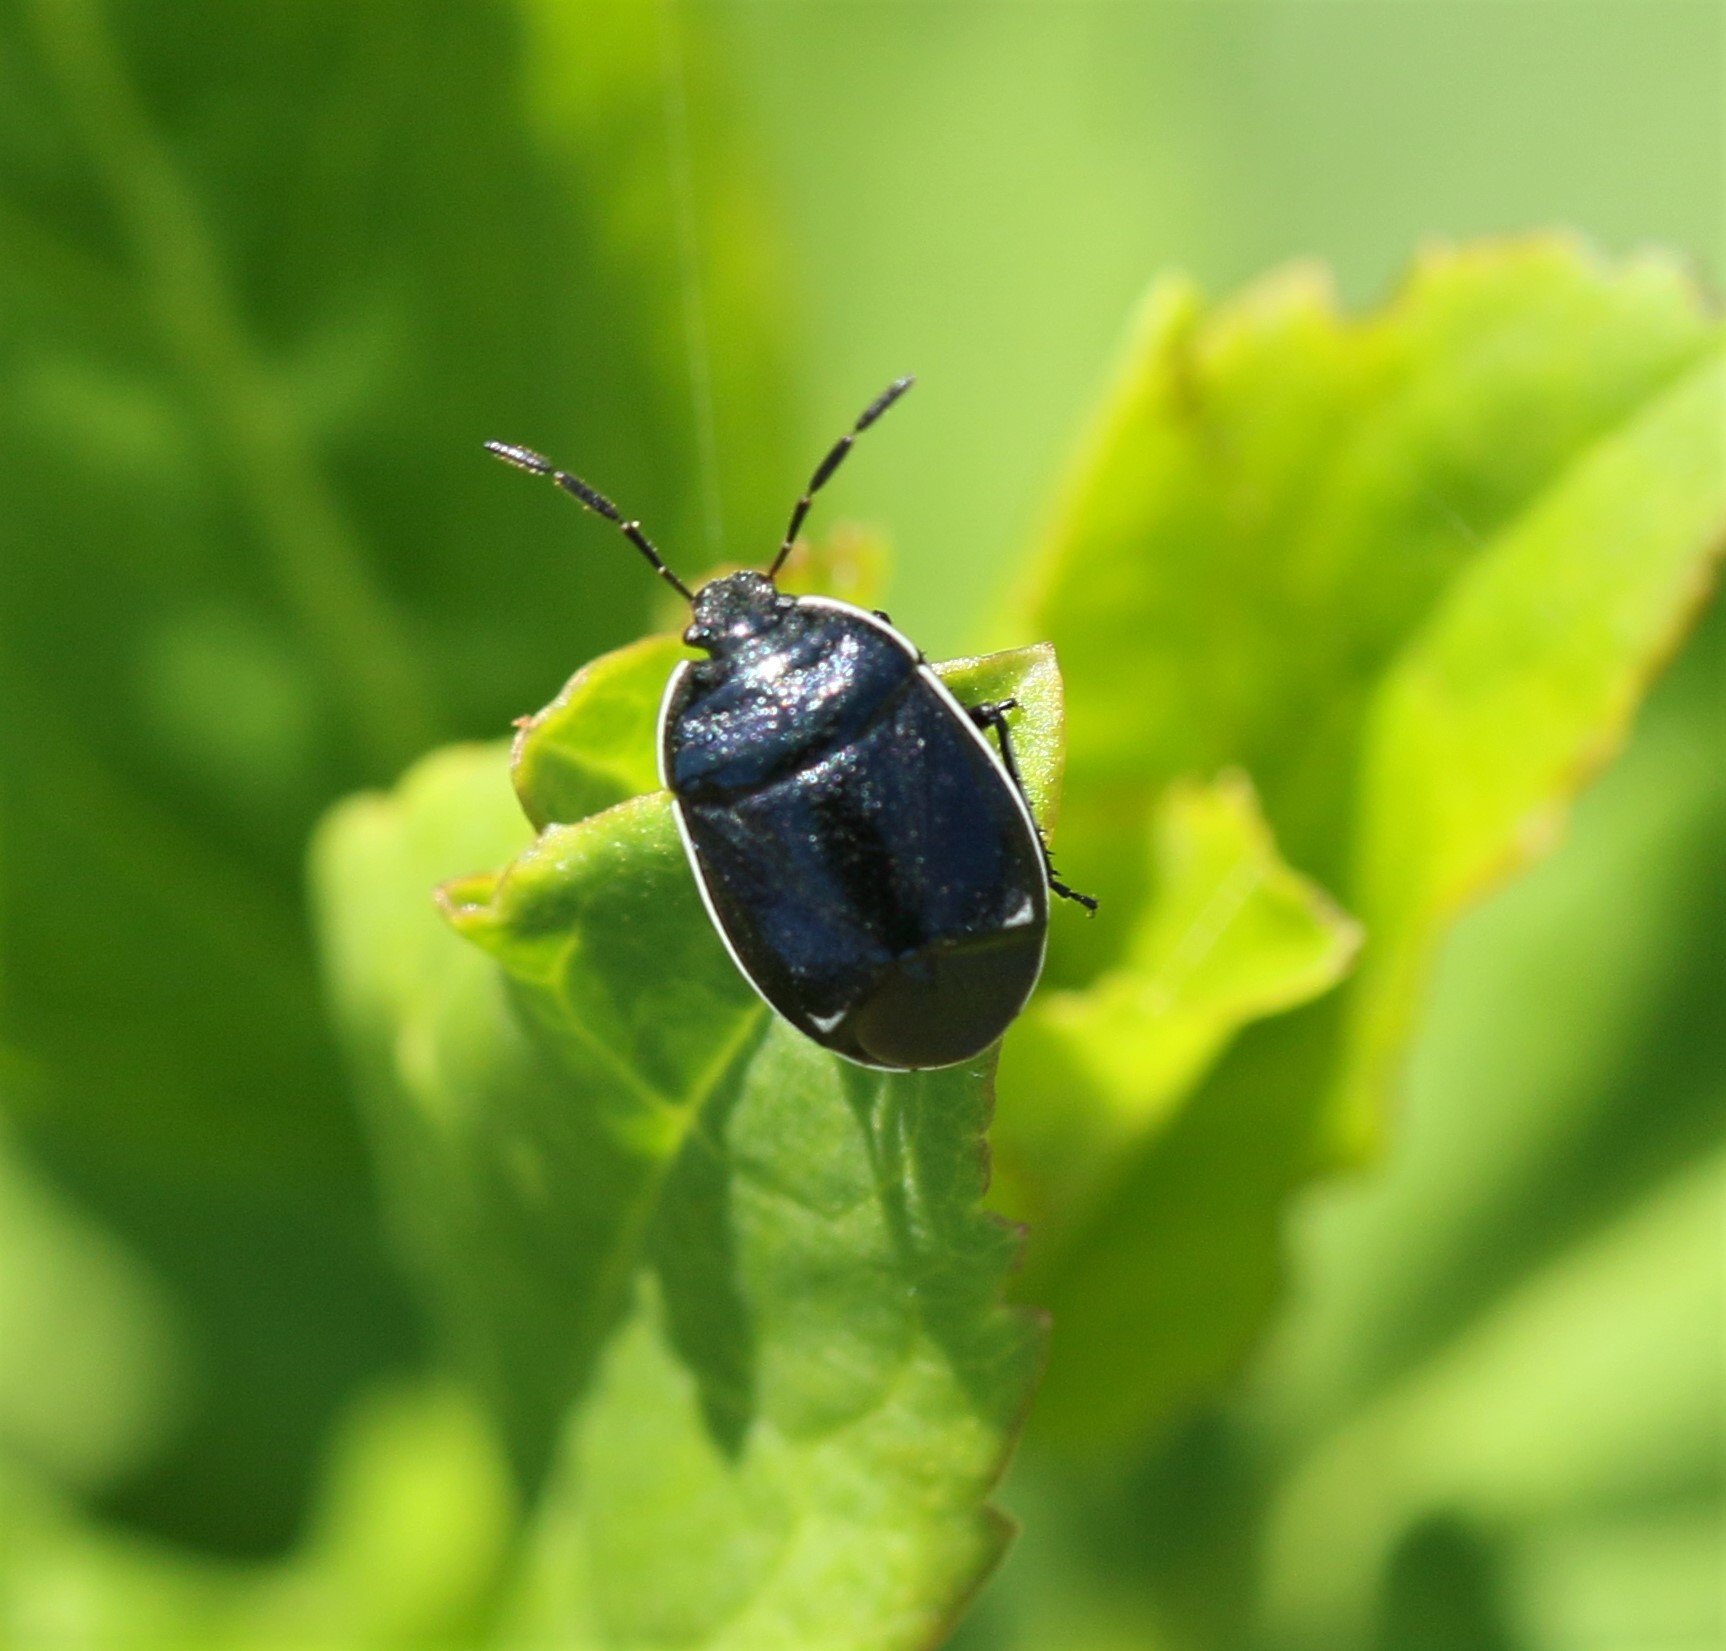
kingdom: Animalia
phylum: Arthropoda
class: Insecta
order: Hemiptera
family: Cydnidae
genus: Sehirus
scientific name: Sehirus cinctus
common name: White-margined burrower bug
